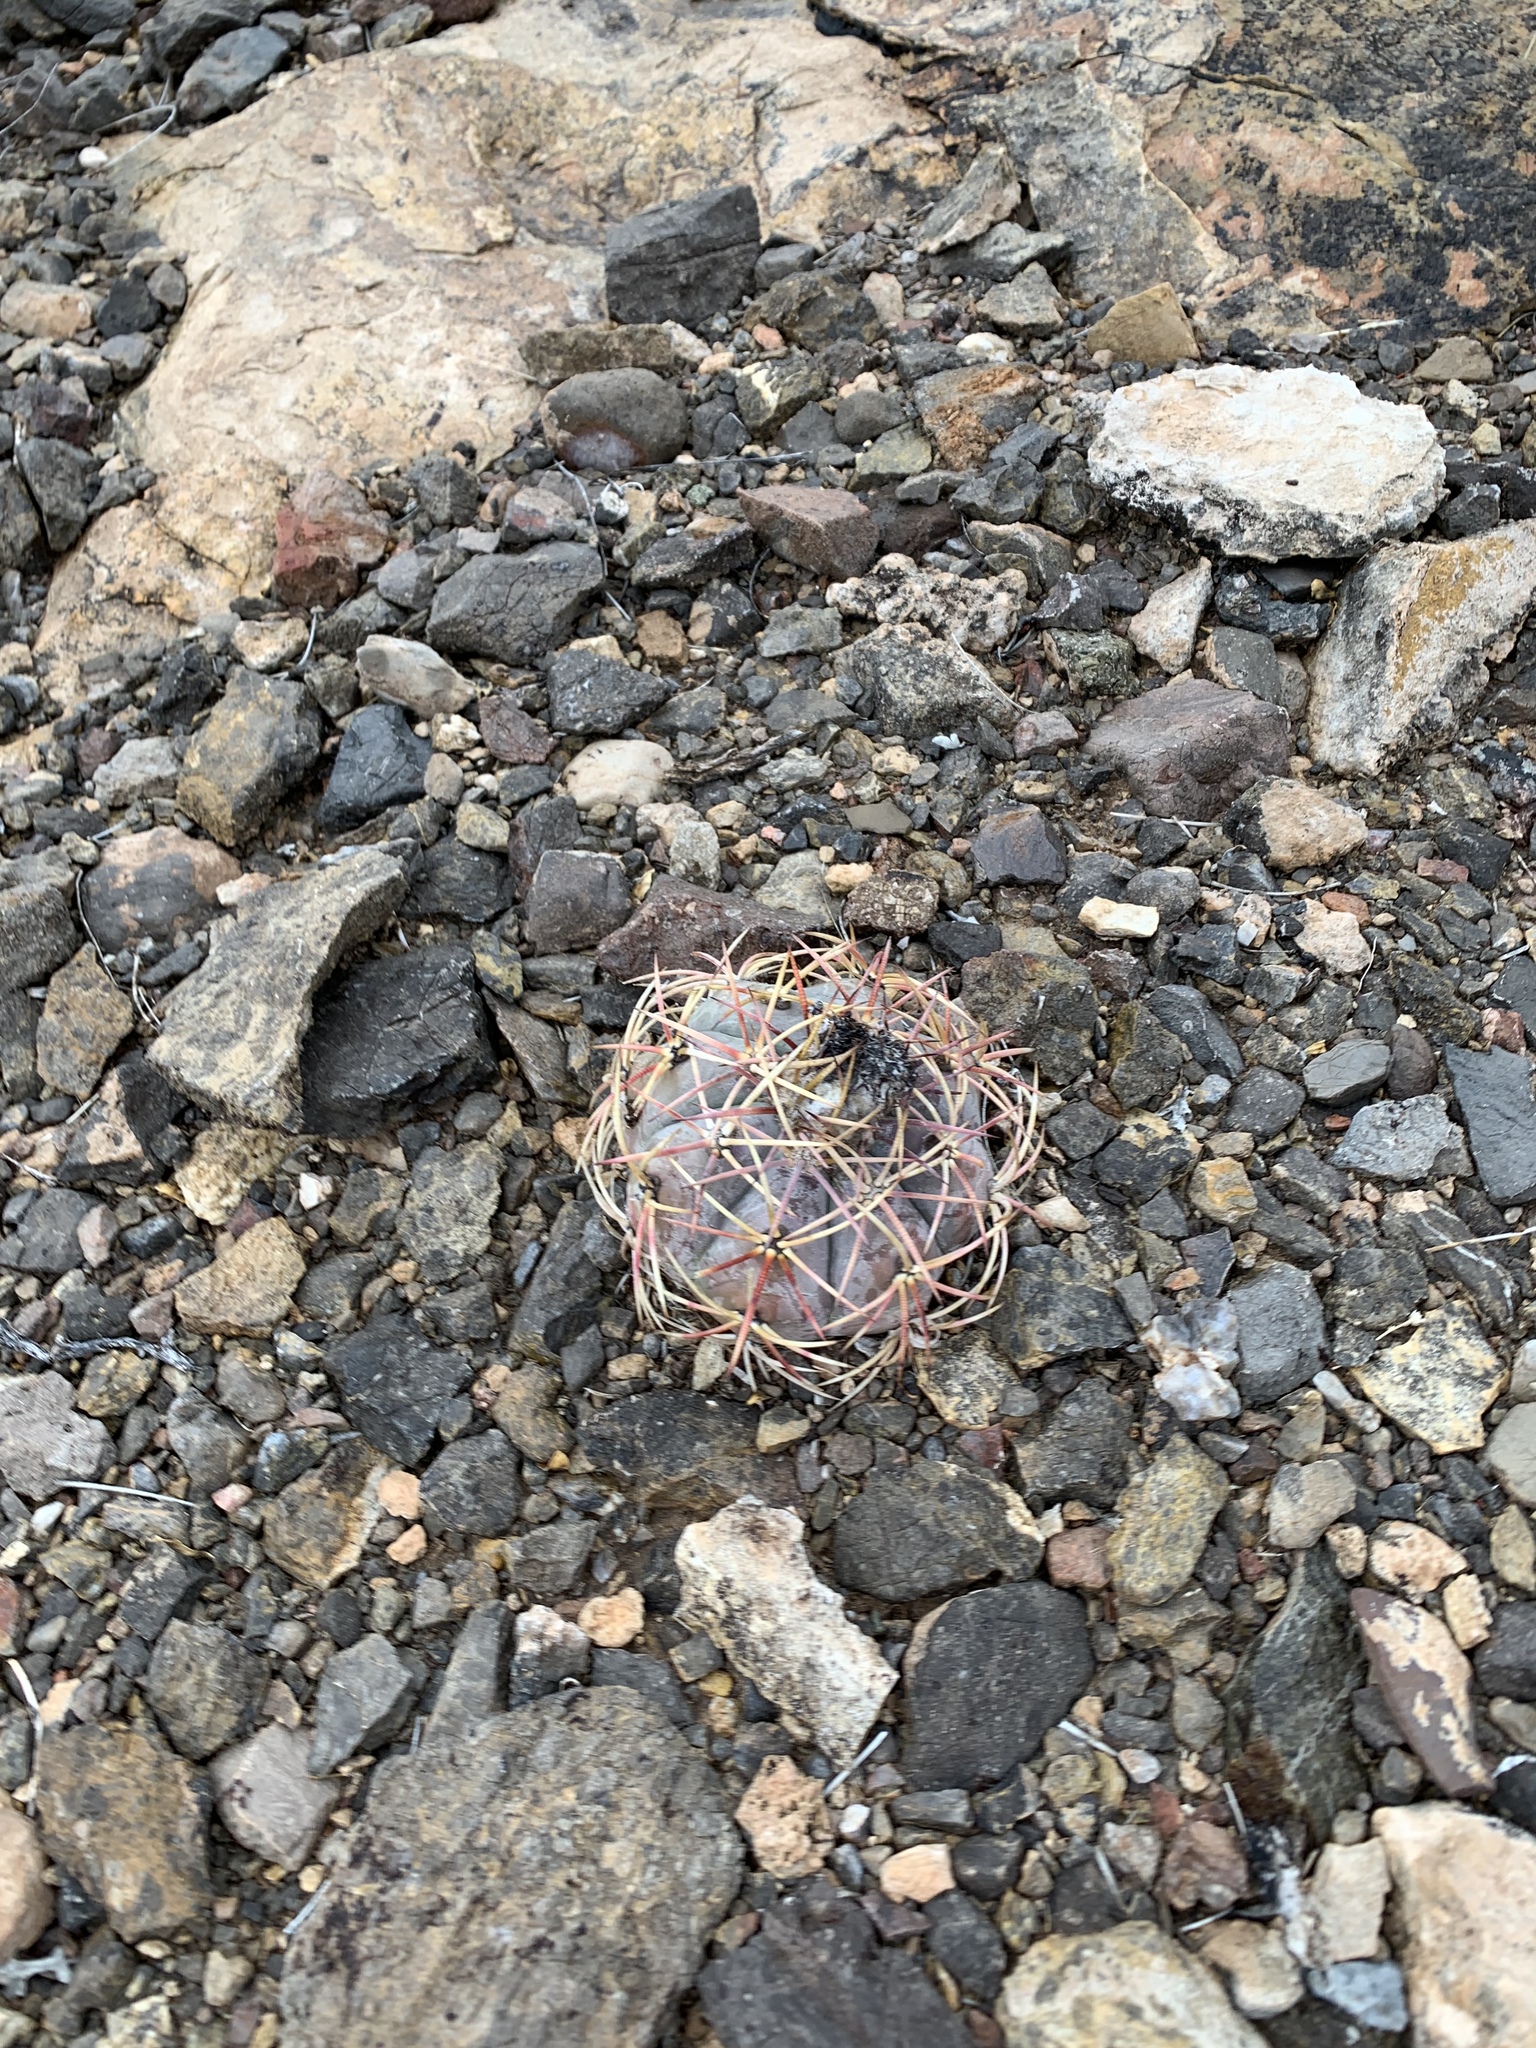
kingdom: Plantae
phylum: Tracheophyta
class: Magnoliopsida
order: Caryophyllales
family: Cactaceae
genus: Echinocactus
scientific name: Echinocactus horizonthalonius
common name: Devilshead
